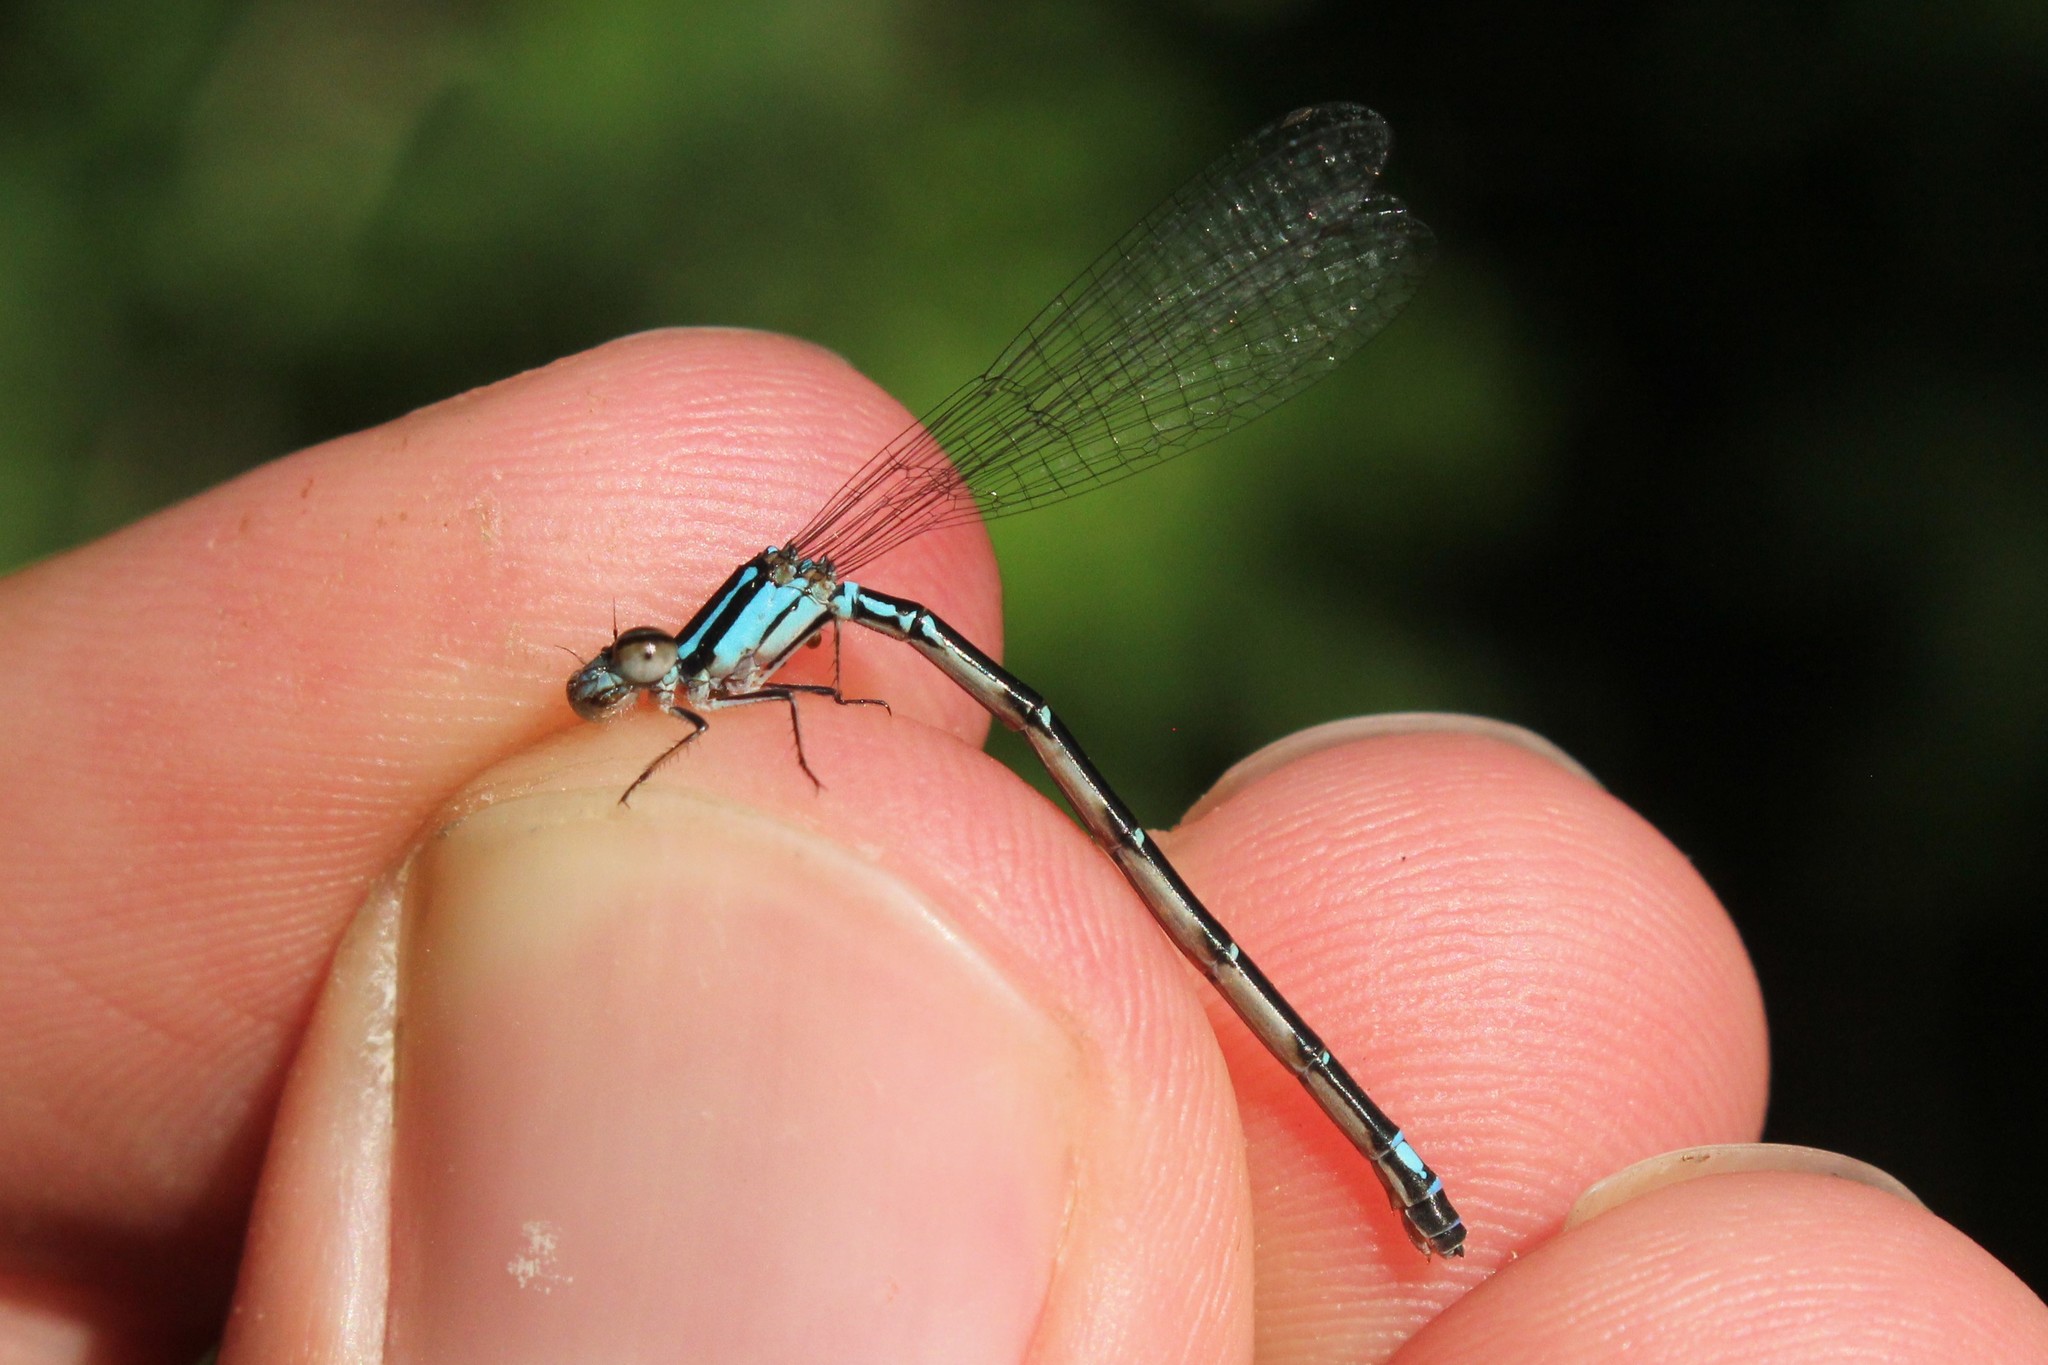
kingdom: Animalia
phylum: Arthropoda
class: Insecta
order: Odonata
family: Coenagrionidae
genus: Enallagma
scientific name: Enallagma geminatum
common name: Skimming bluet
